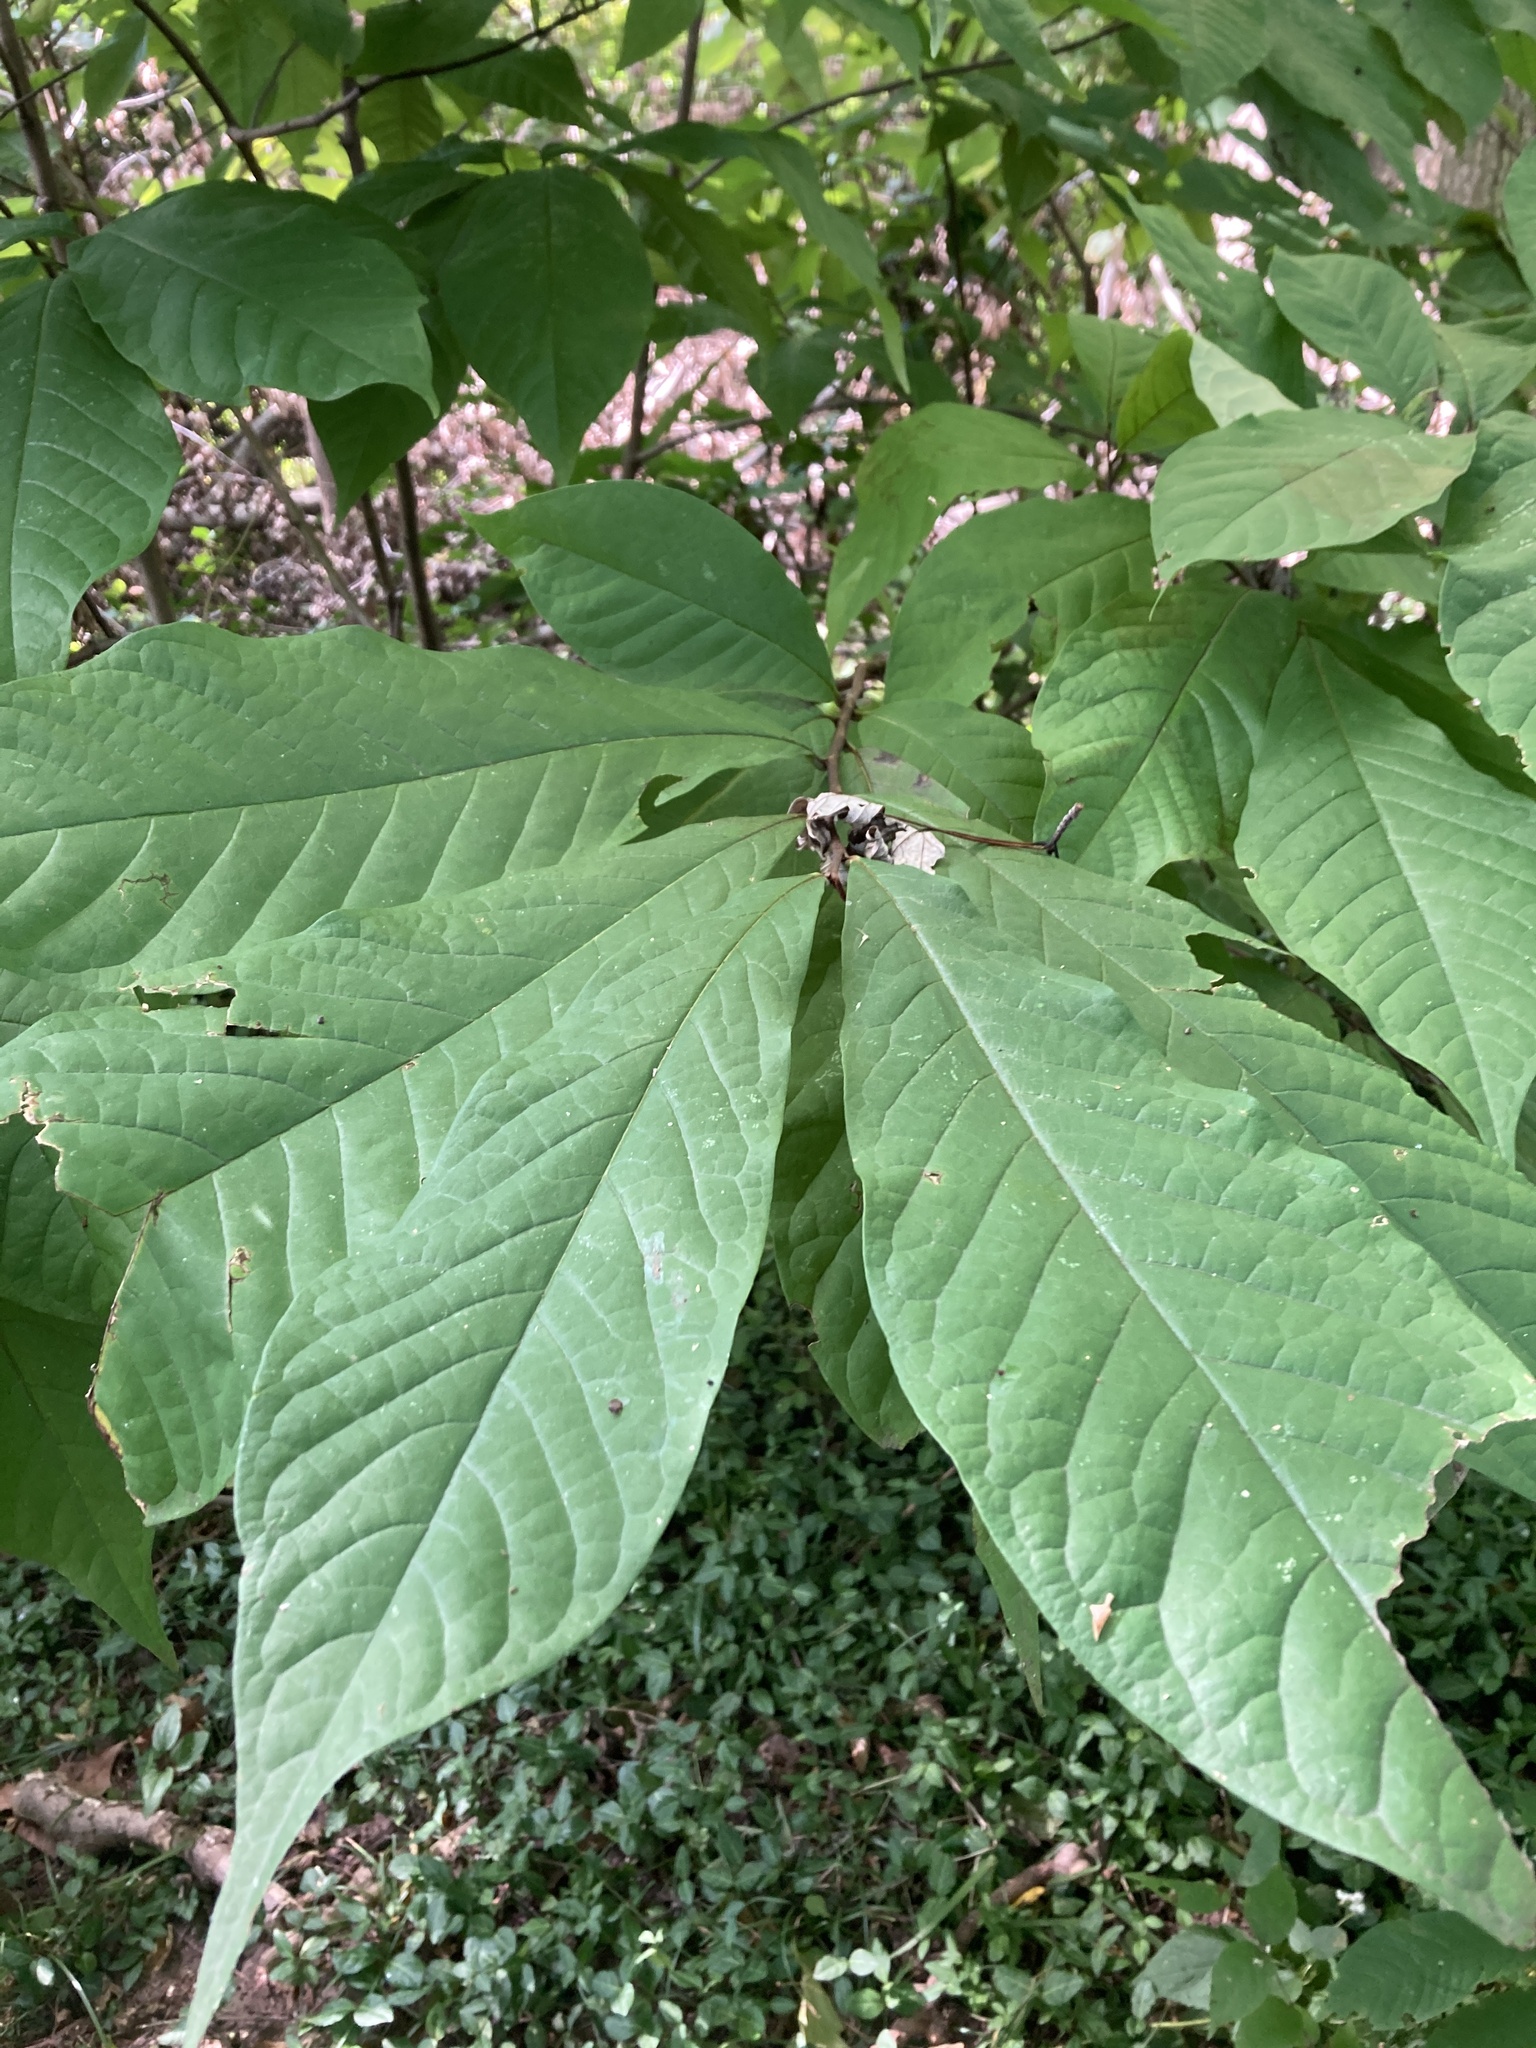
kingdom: Plantae
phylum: Tracheophyta
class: Magnoliopsida
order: Magnoliales
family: Annonaceae
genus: Asimina
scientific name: Asimina triloba
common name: Dog-banana
